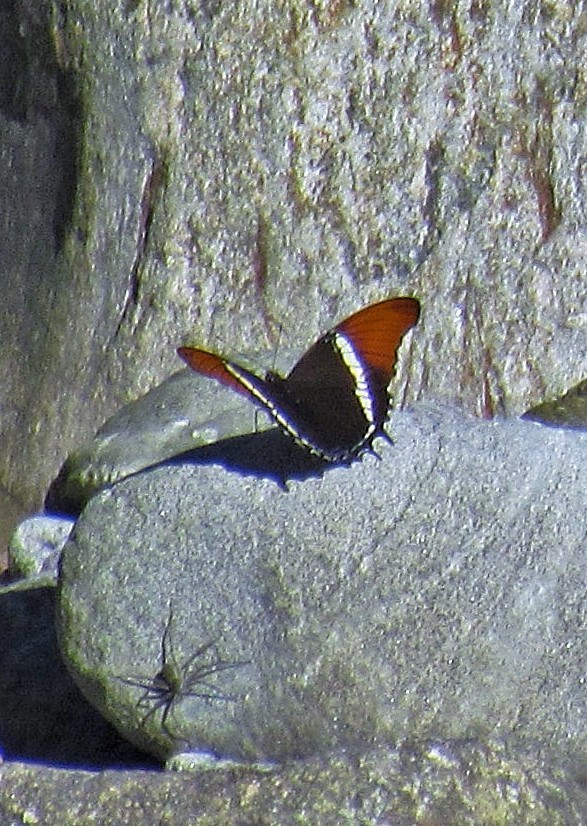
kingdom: Animalia
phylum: Arthropoda
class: Insecta
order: Lepidoptera
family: Nymphalidae
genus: Siproeta
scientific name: Siproeta epaphus
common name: Rusty-tipped page
